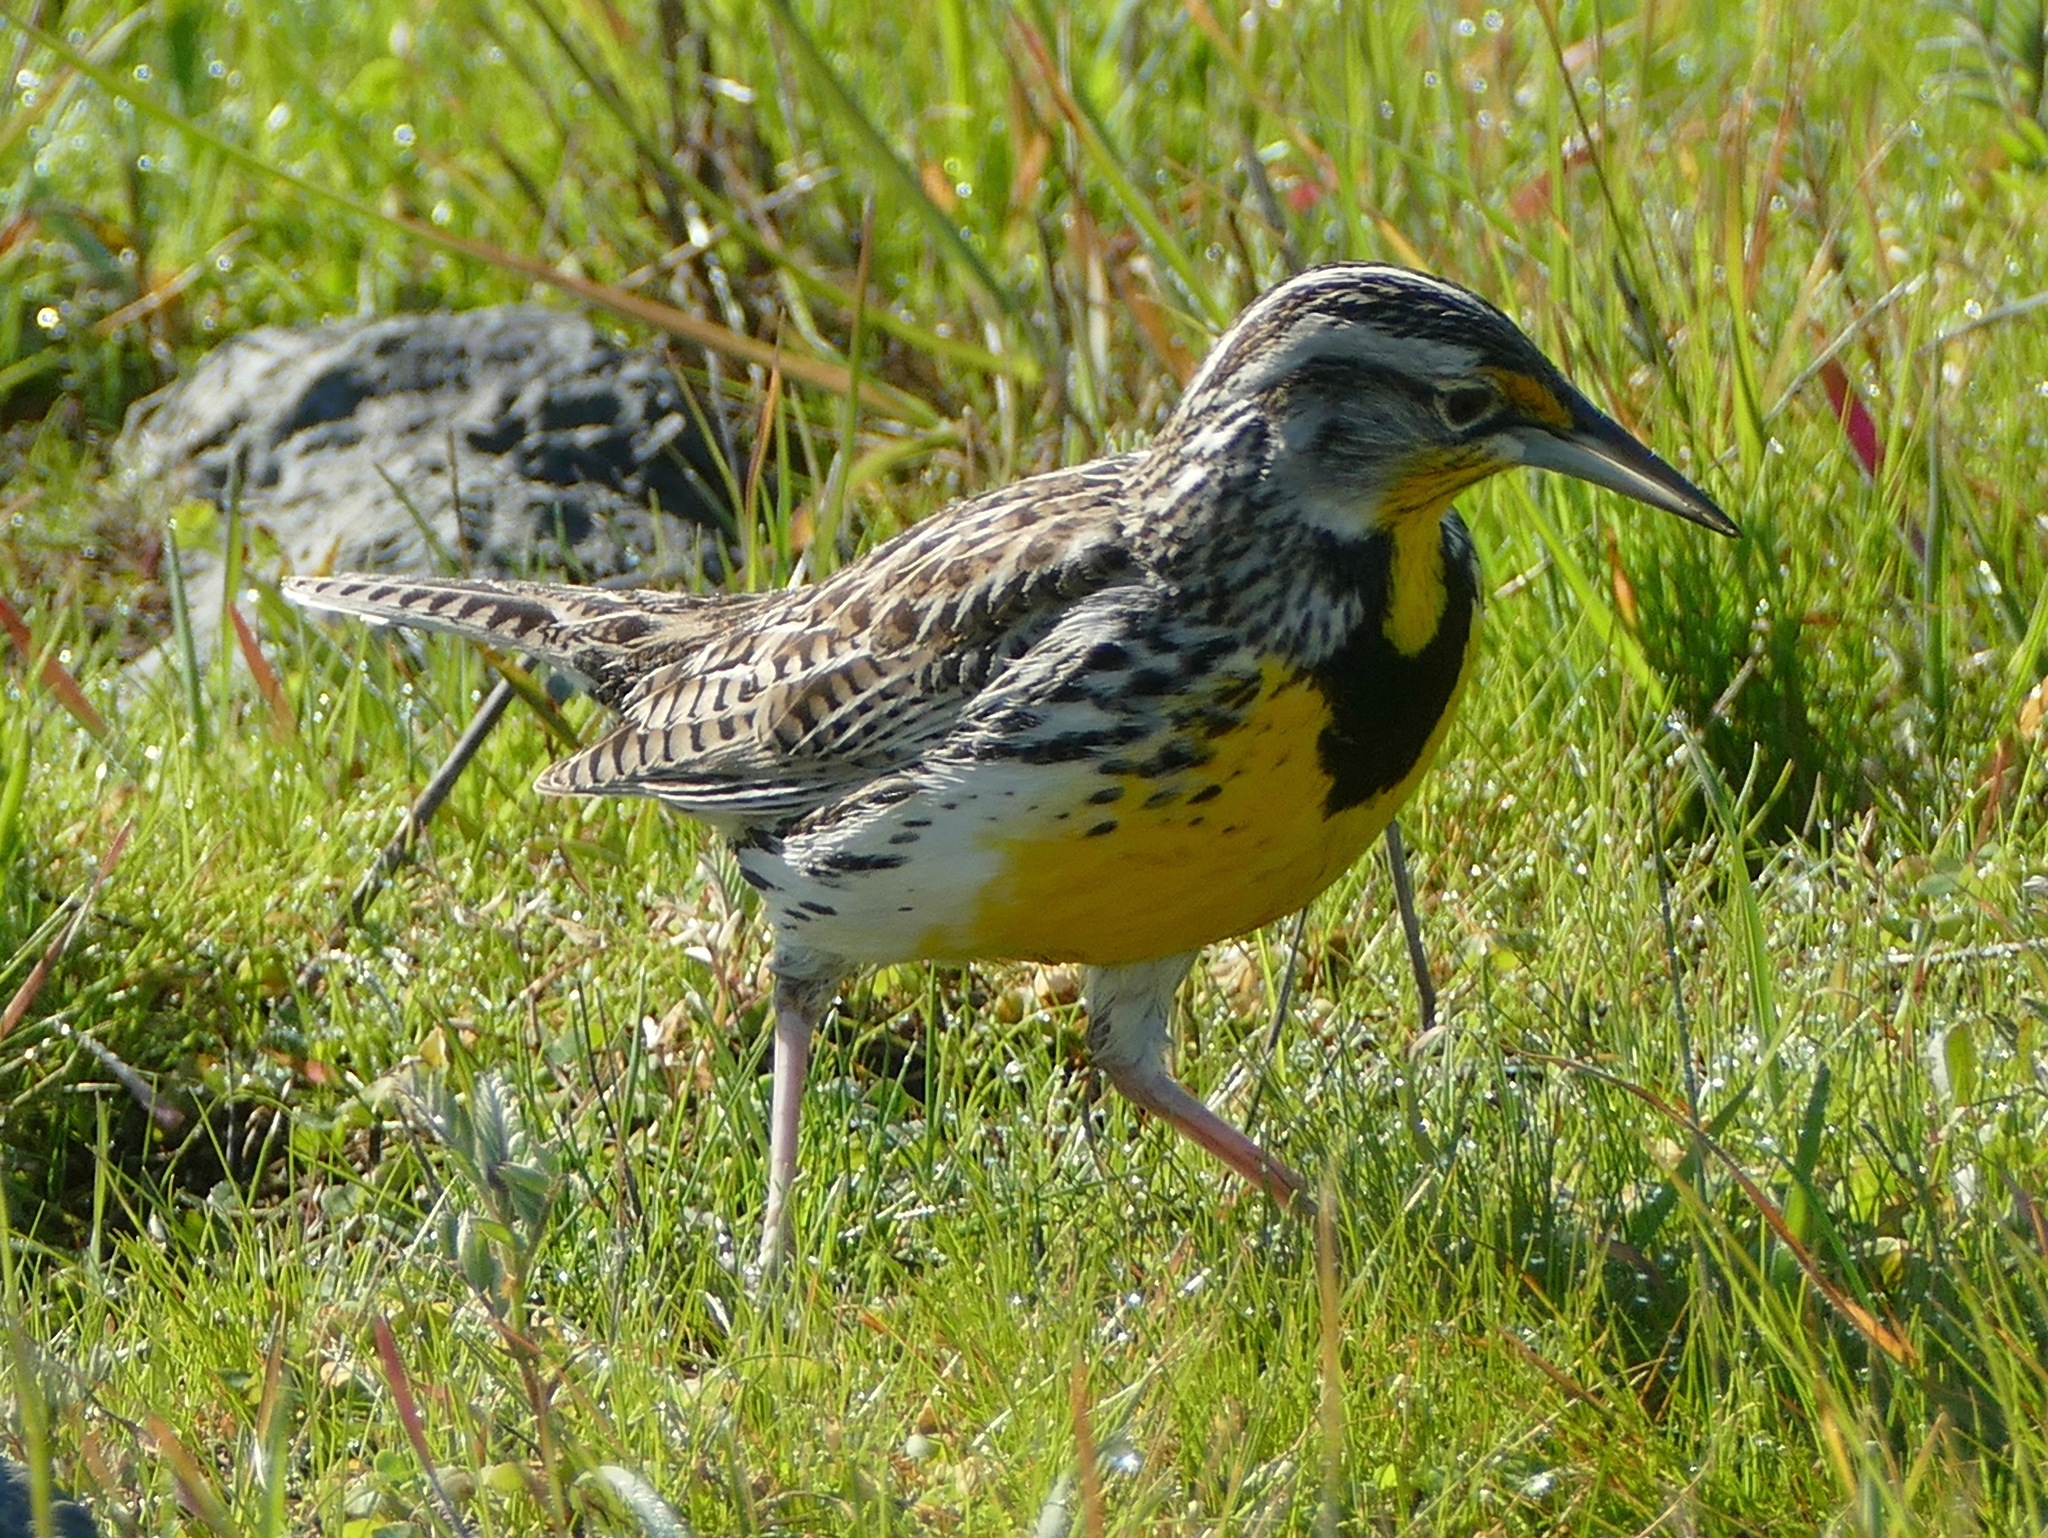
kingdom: Animalia
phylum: Chordata
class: Aves
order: Passeriformes
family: Icteridae
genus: Sturnella
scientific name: Sturnella neglecta
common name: Western meadowlark
